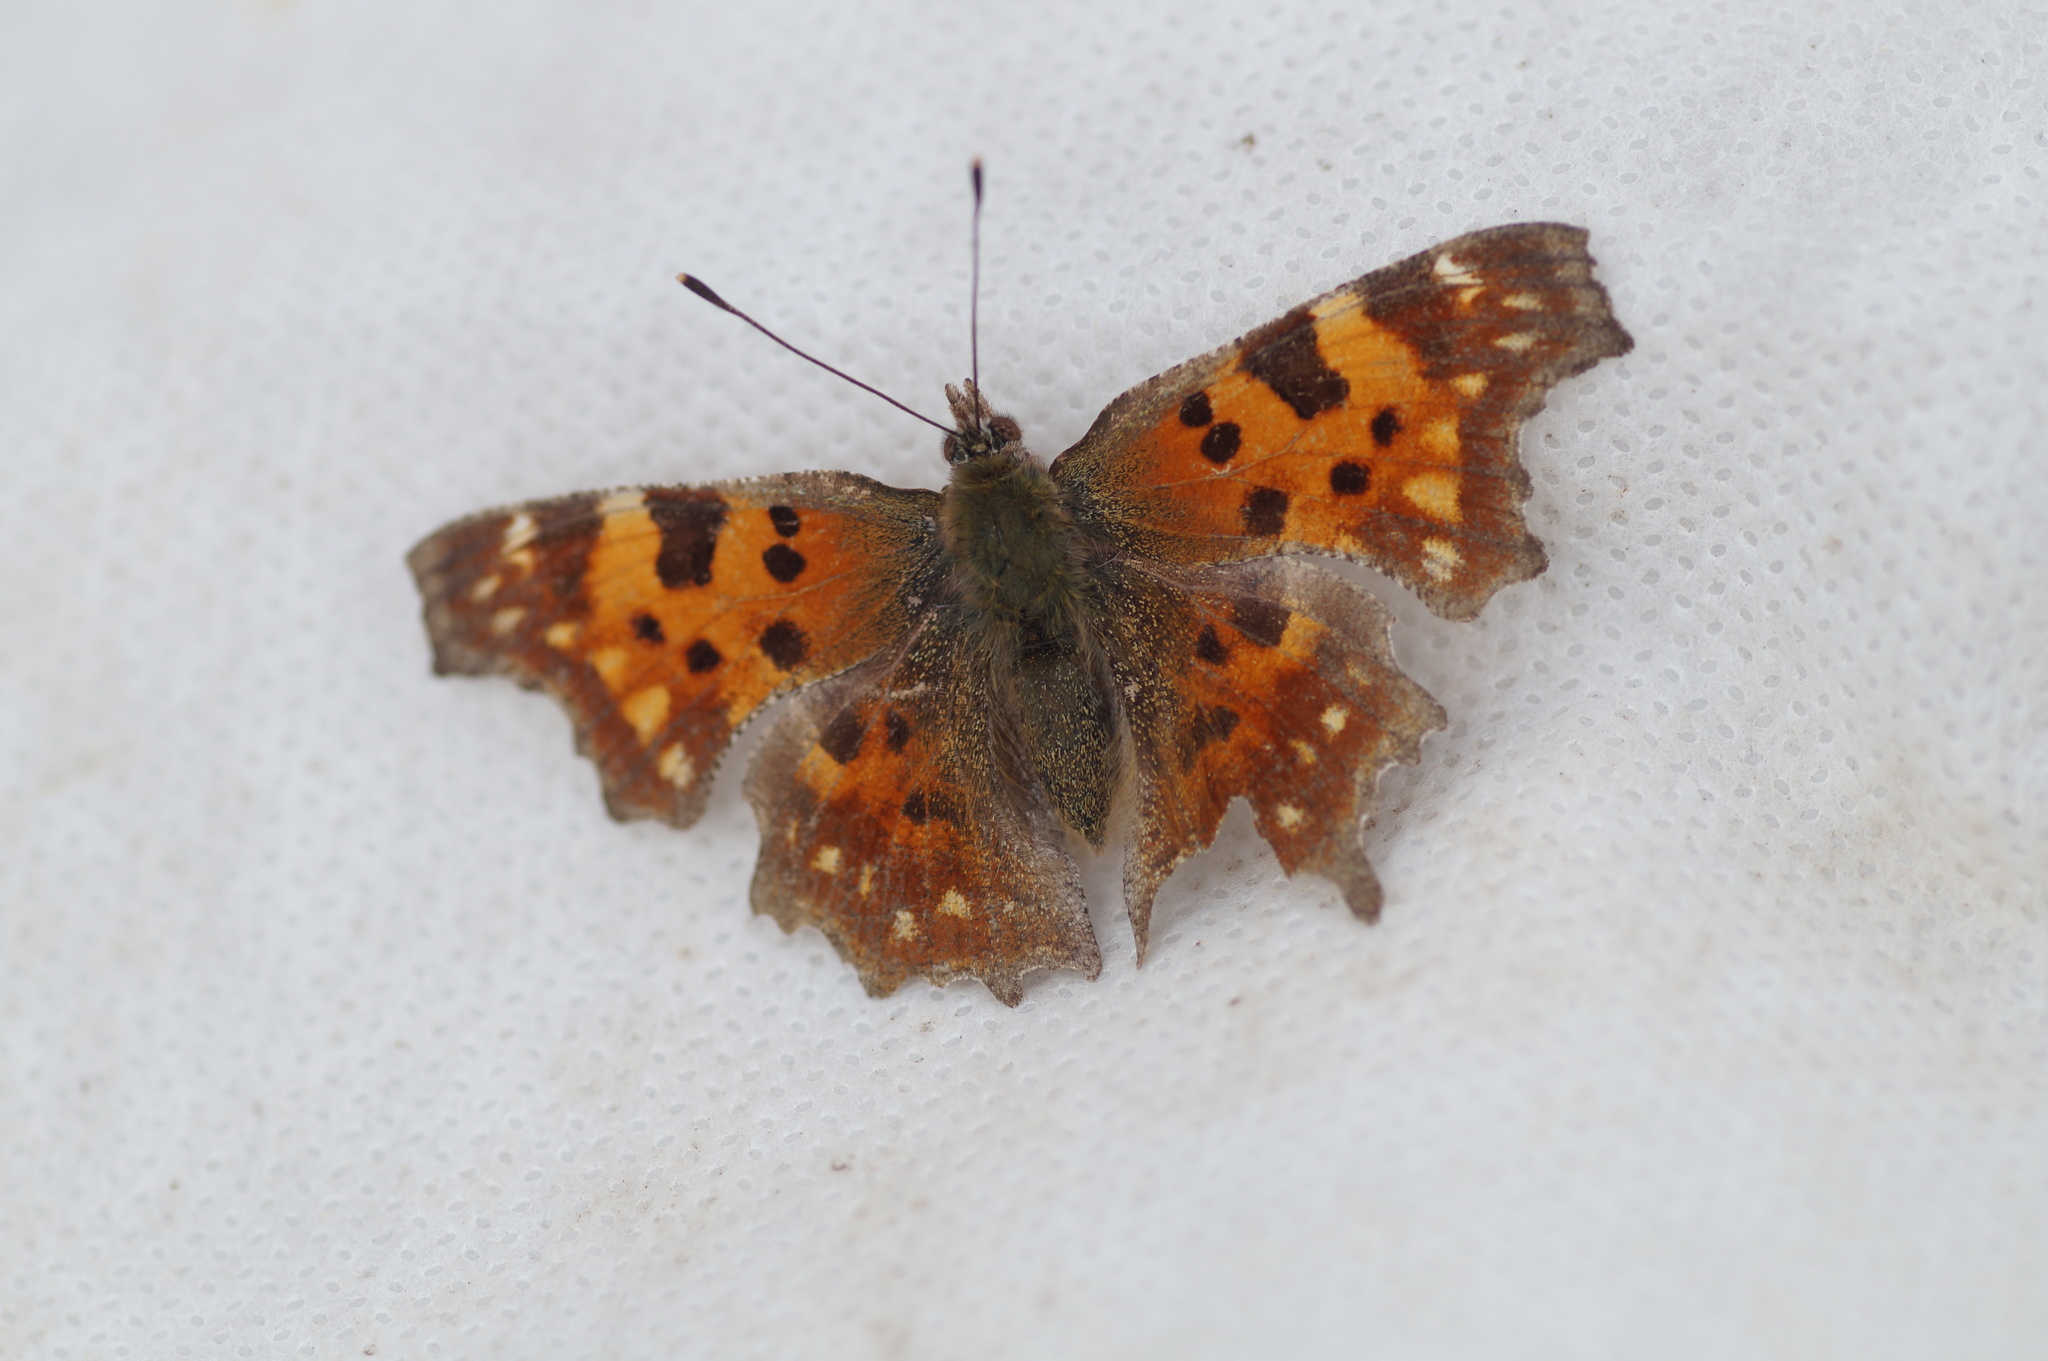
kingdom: Animalia
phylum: Arthropoda
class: Insecta
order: Lepidoptera
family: Nymphalidae
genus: Polygonia
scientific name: Polygonia c-album
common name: Comma
